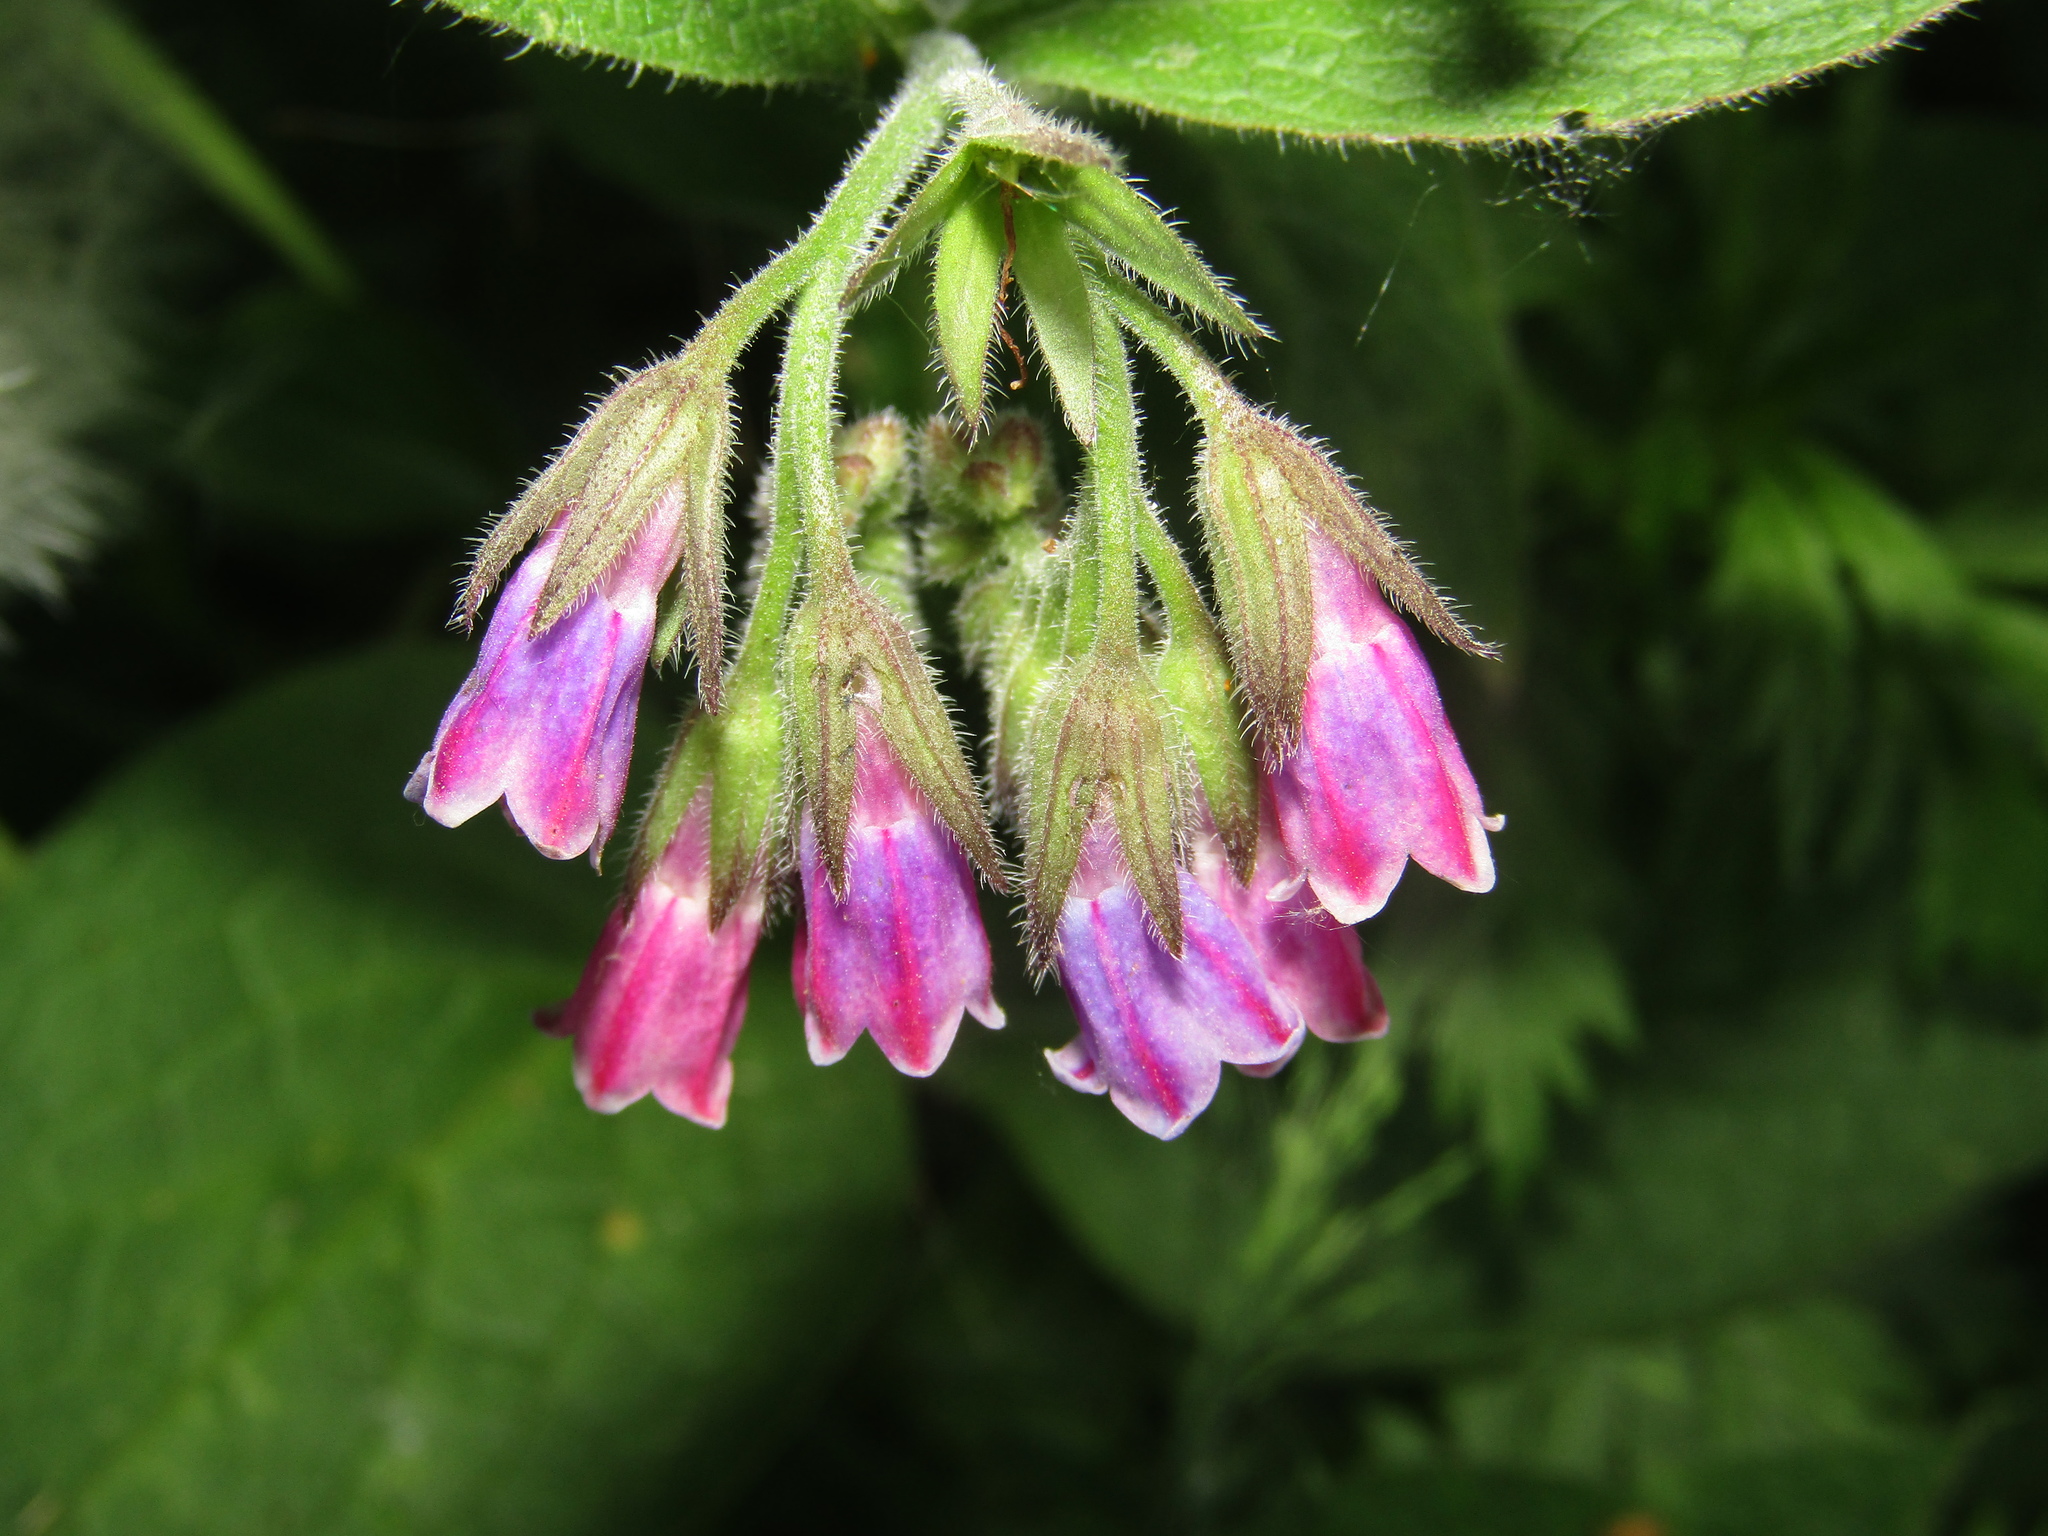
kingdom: Plantae
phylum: Tracheophyta
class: Magnoliopsida
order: Boraginales
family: Boraginaceae
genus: Symphytum
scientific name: Symphytum uplandicum
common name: Russian comfrey
